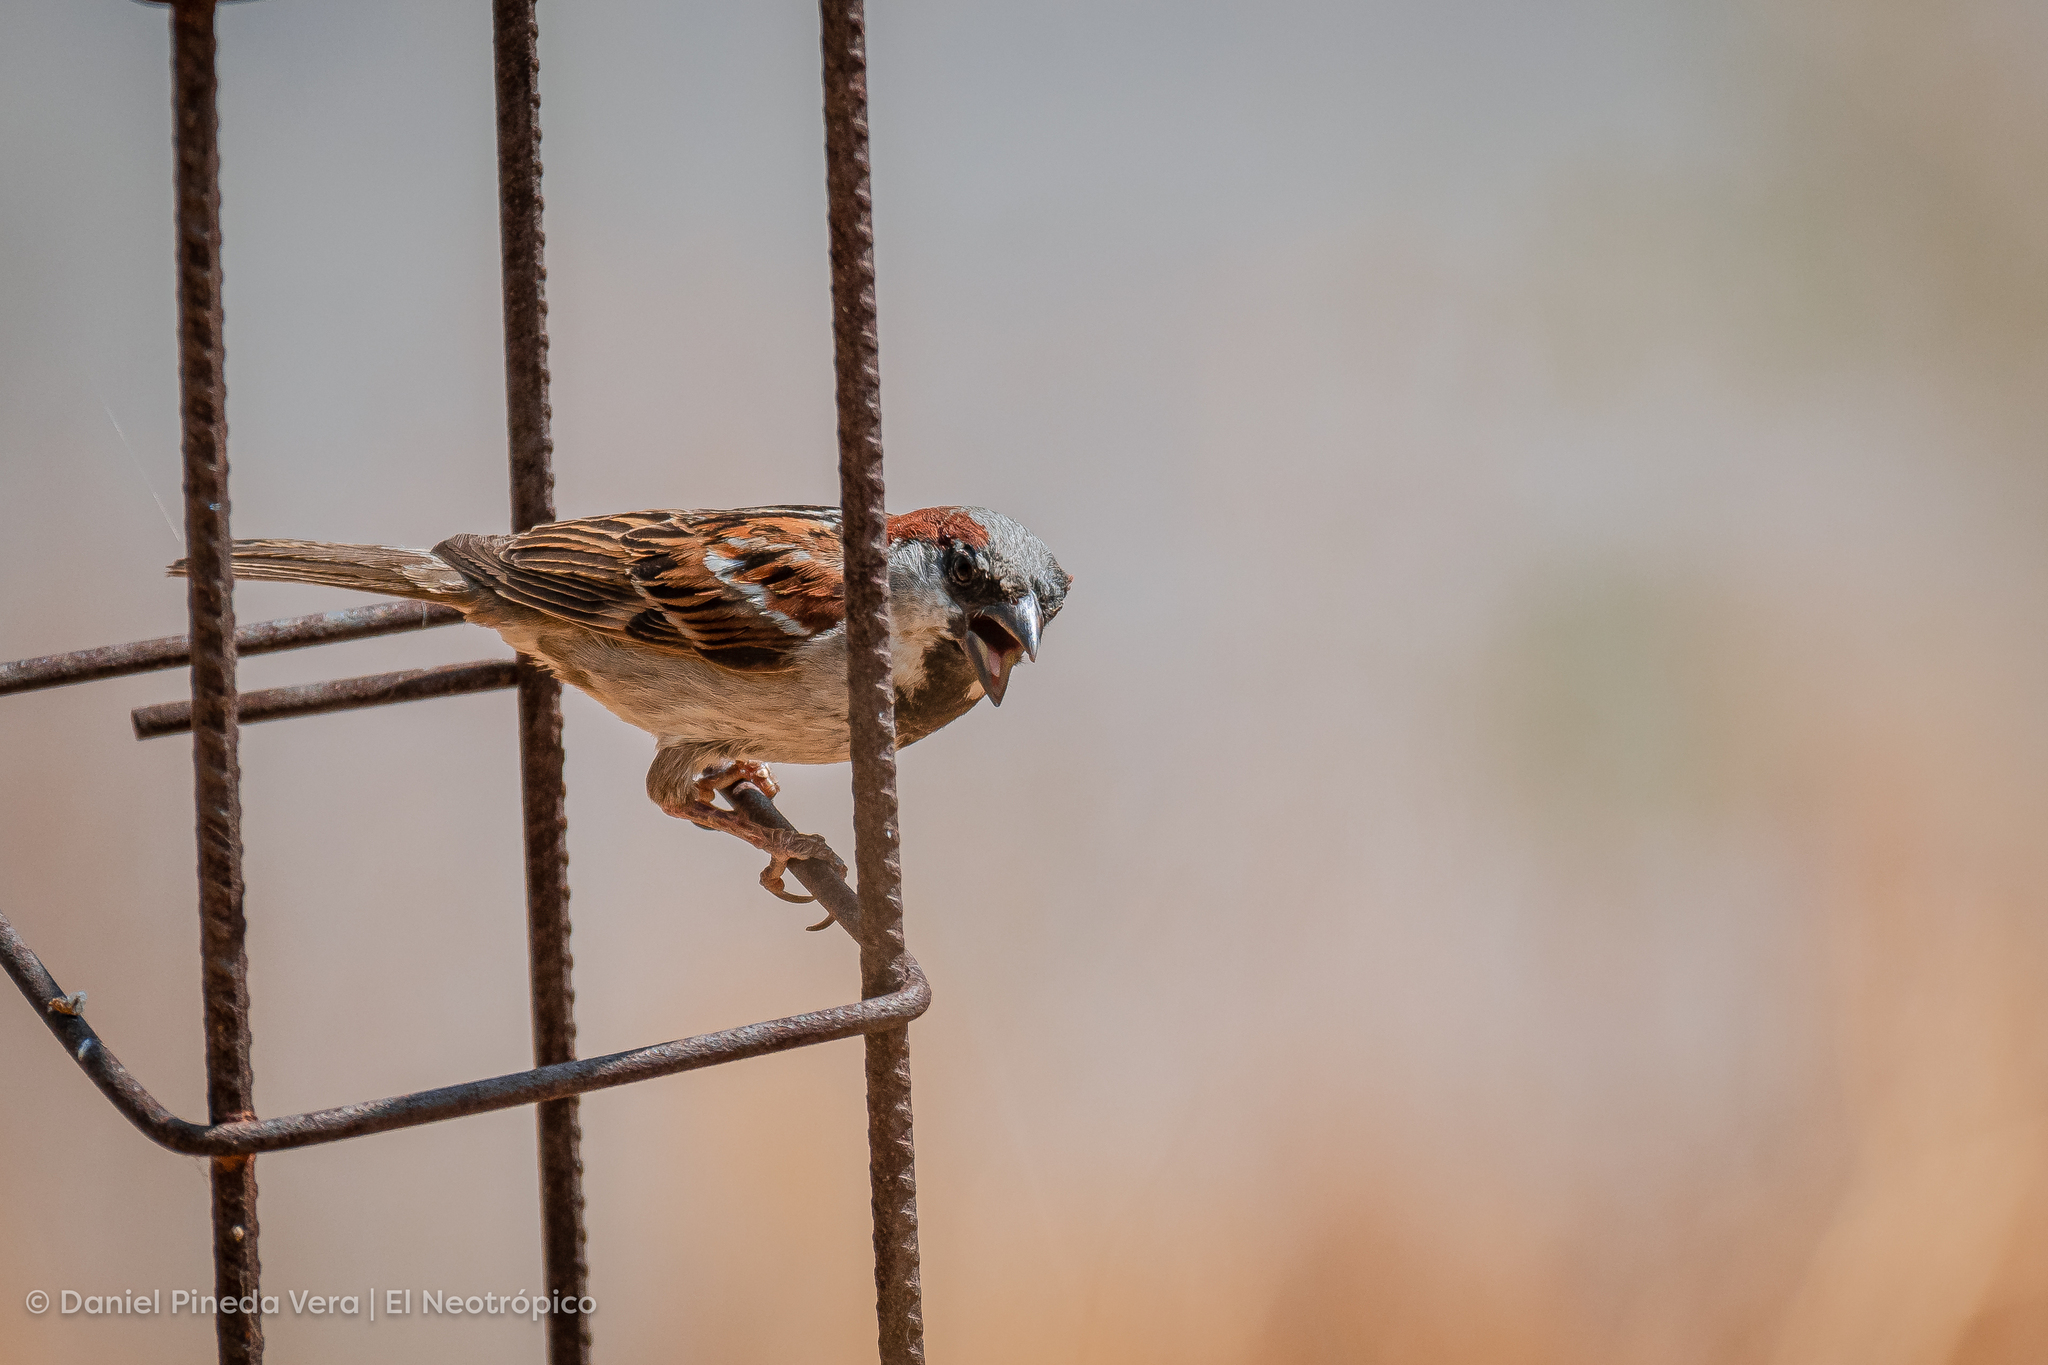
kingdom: Animalia
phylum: Chordata
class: Aves
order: Passeriformes
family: Passeridae
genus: Passer
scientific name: Passer domesticus
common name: House sparrow
